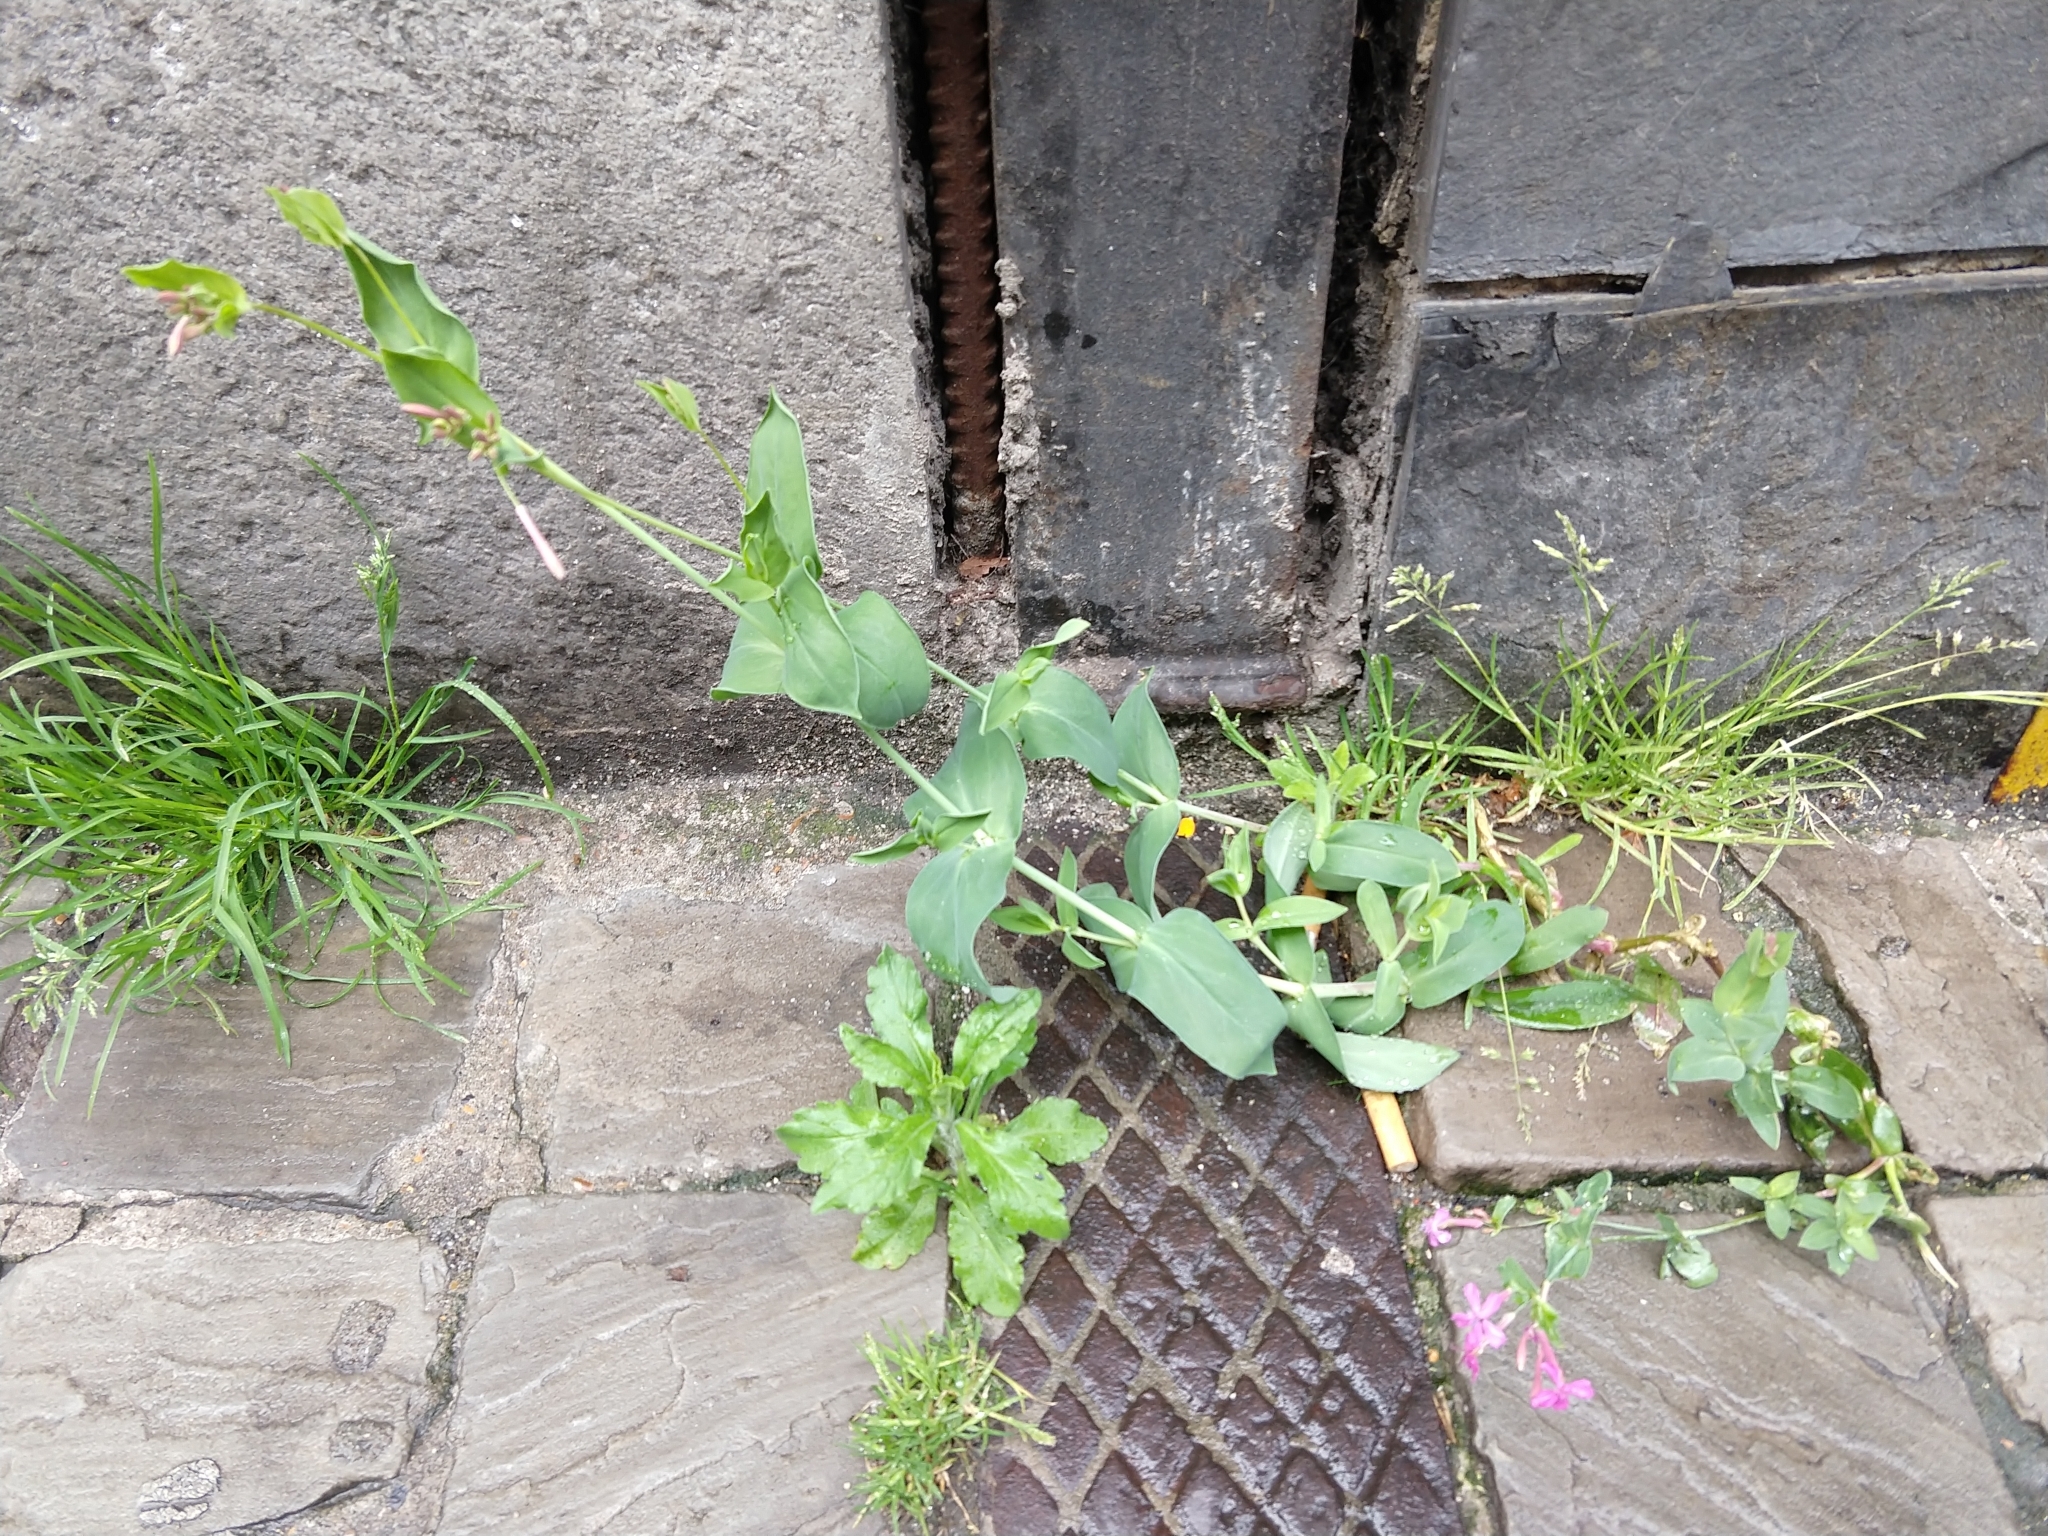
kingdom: Plantae
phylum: Tracheophyta
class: Magnoliopsida
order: Caryophyllales
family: Caryophyllaceae
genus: Atocion
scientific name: Atocion armeria
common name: Sweet william catchfly
